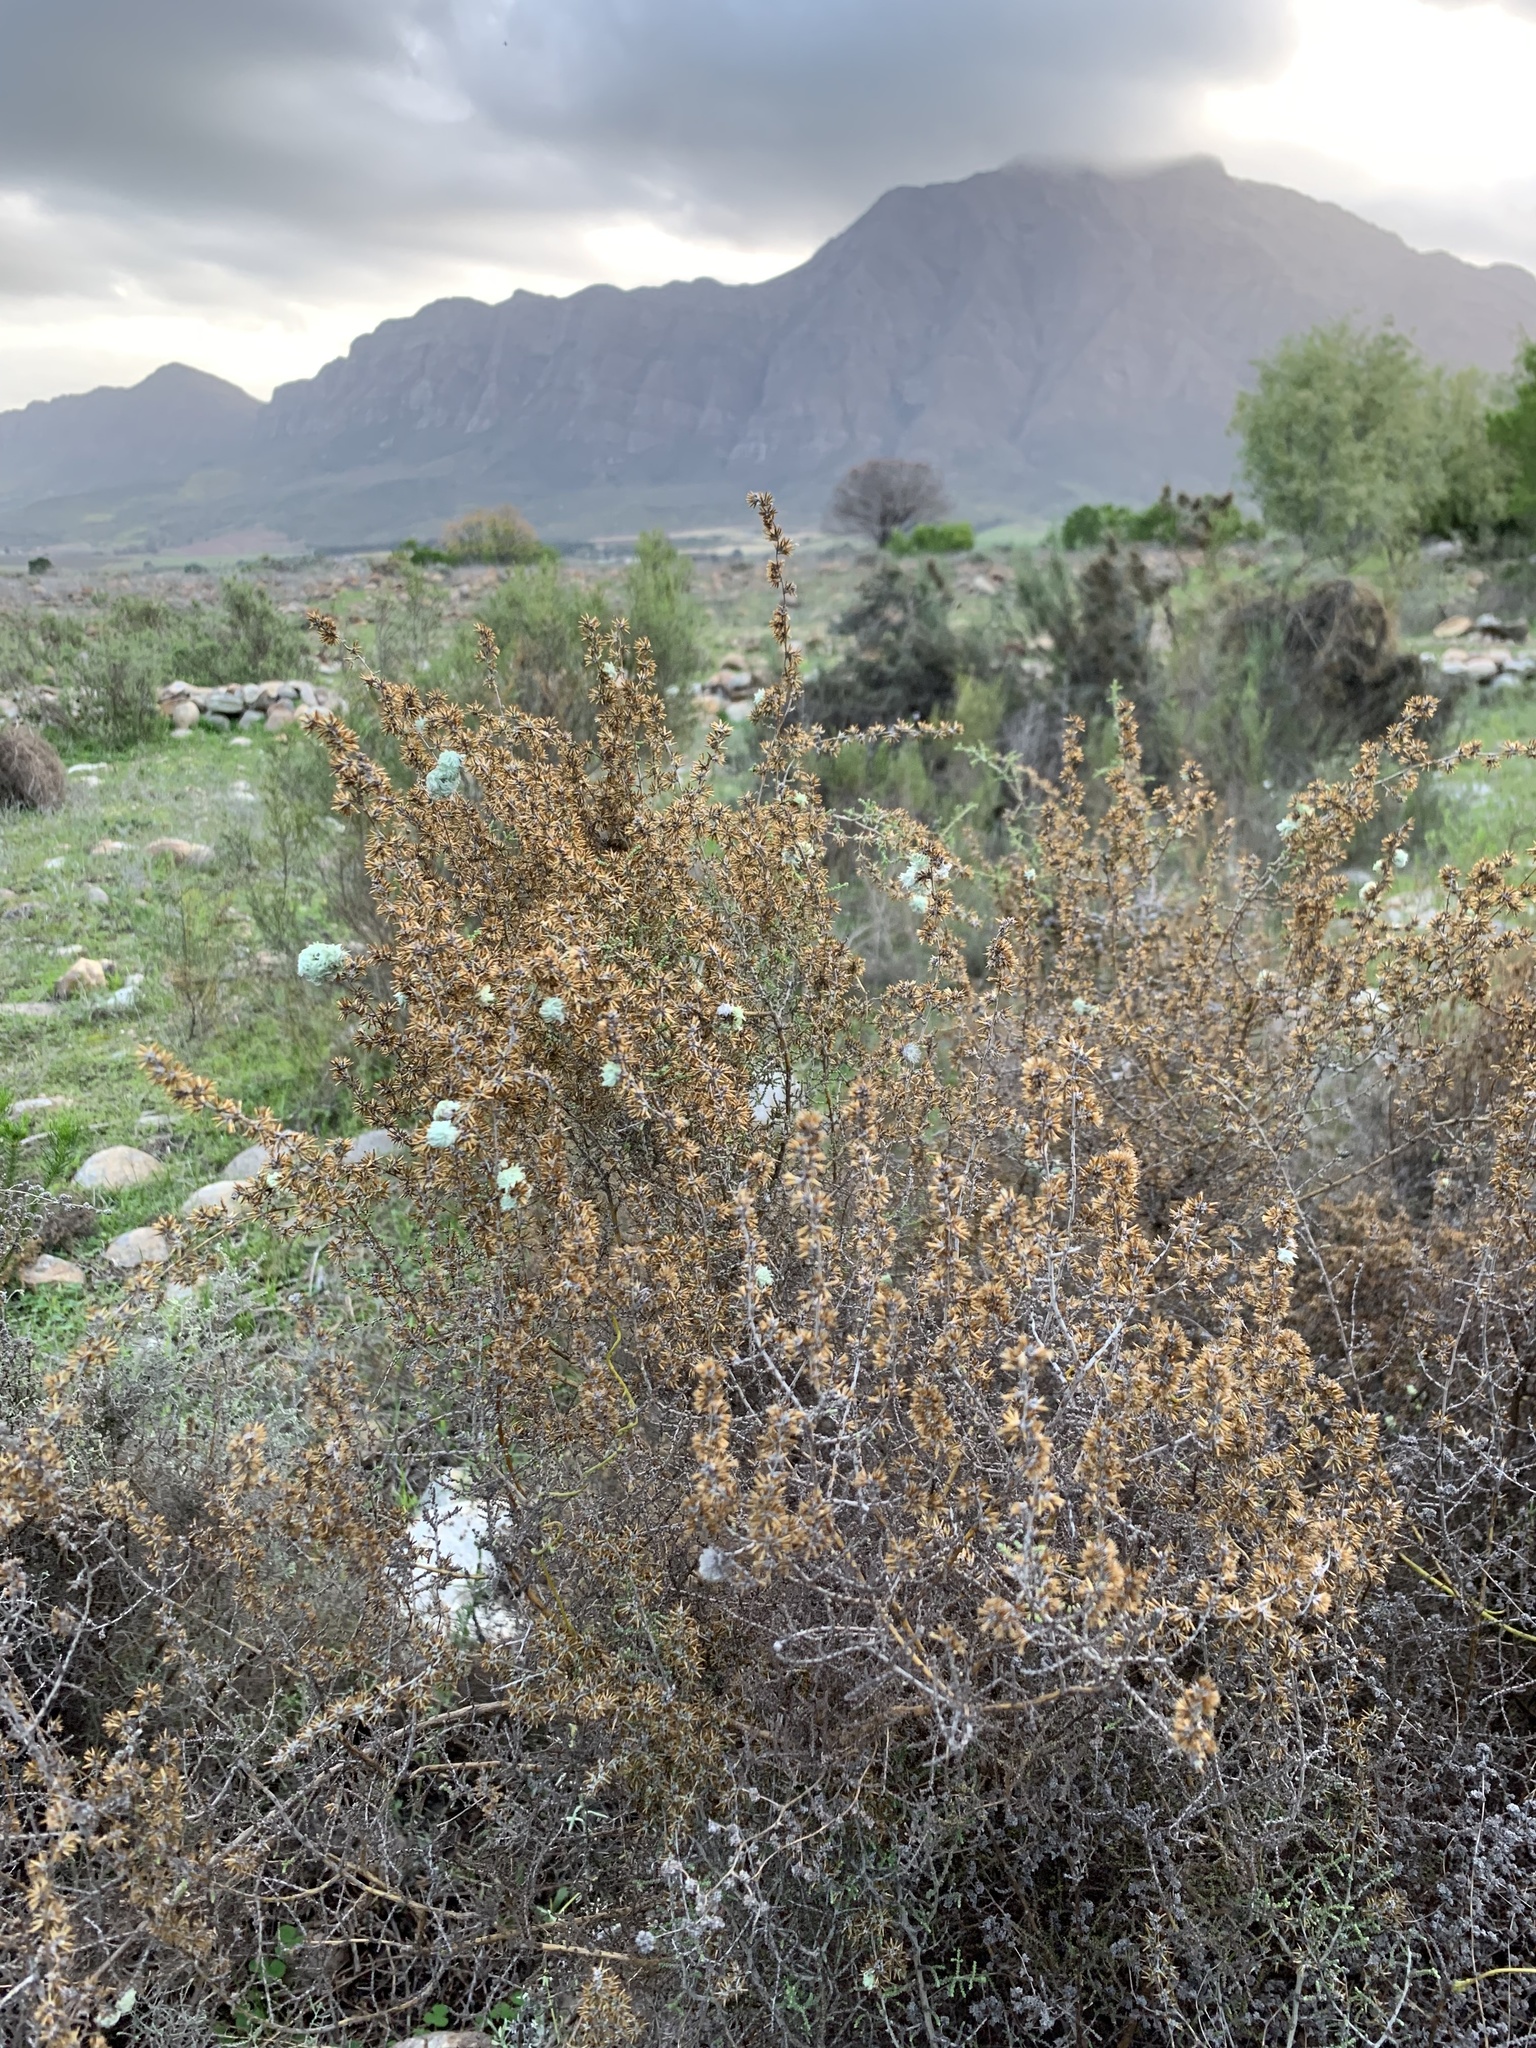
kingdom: Plantae
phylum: Tracheophyta
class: Magnoliopsida
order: Asterales
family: Asteraceae
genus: Seriphium
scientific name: Seriphium plumosum
